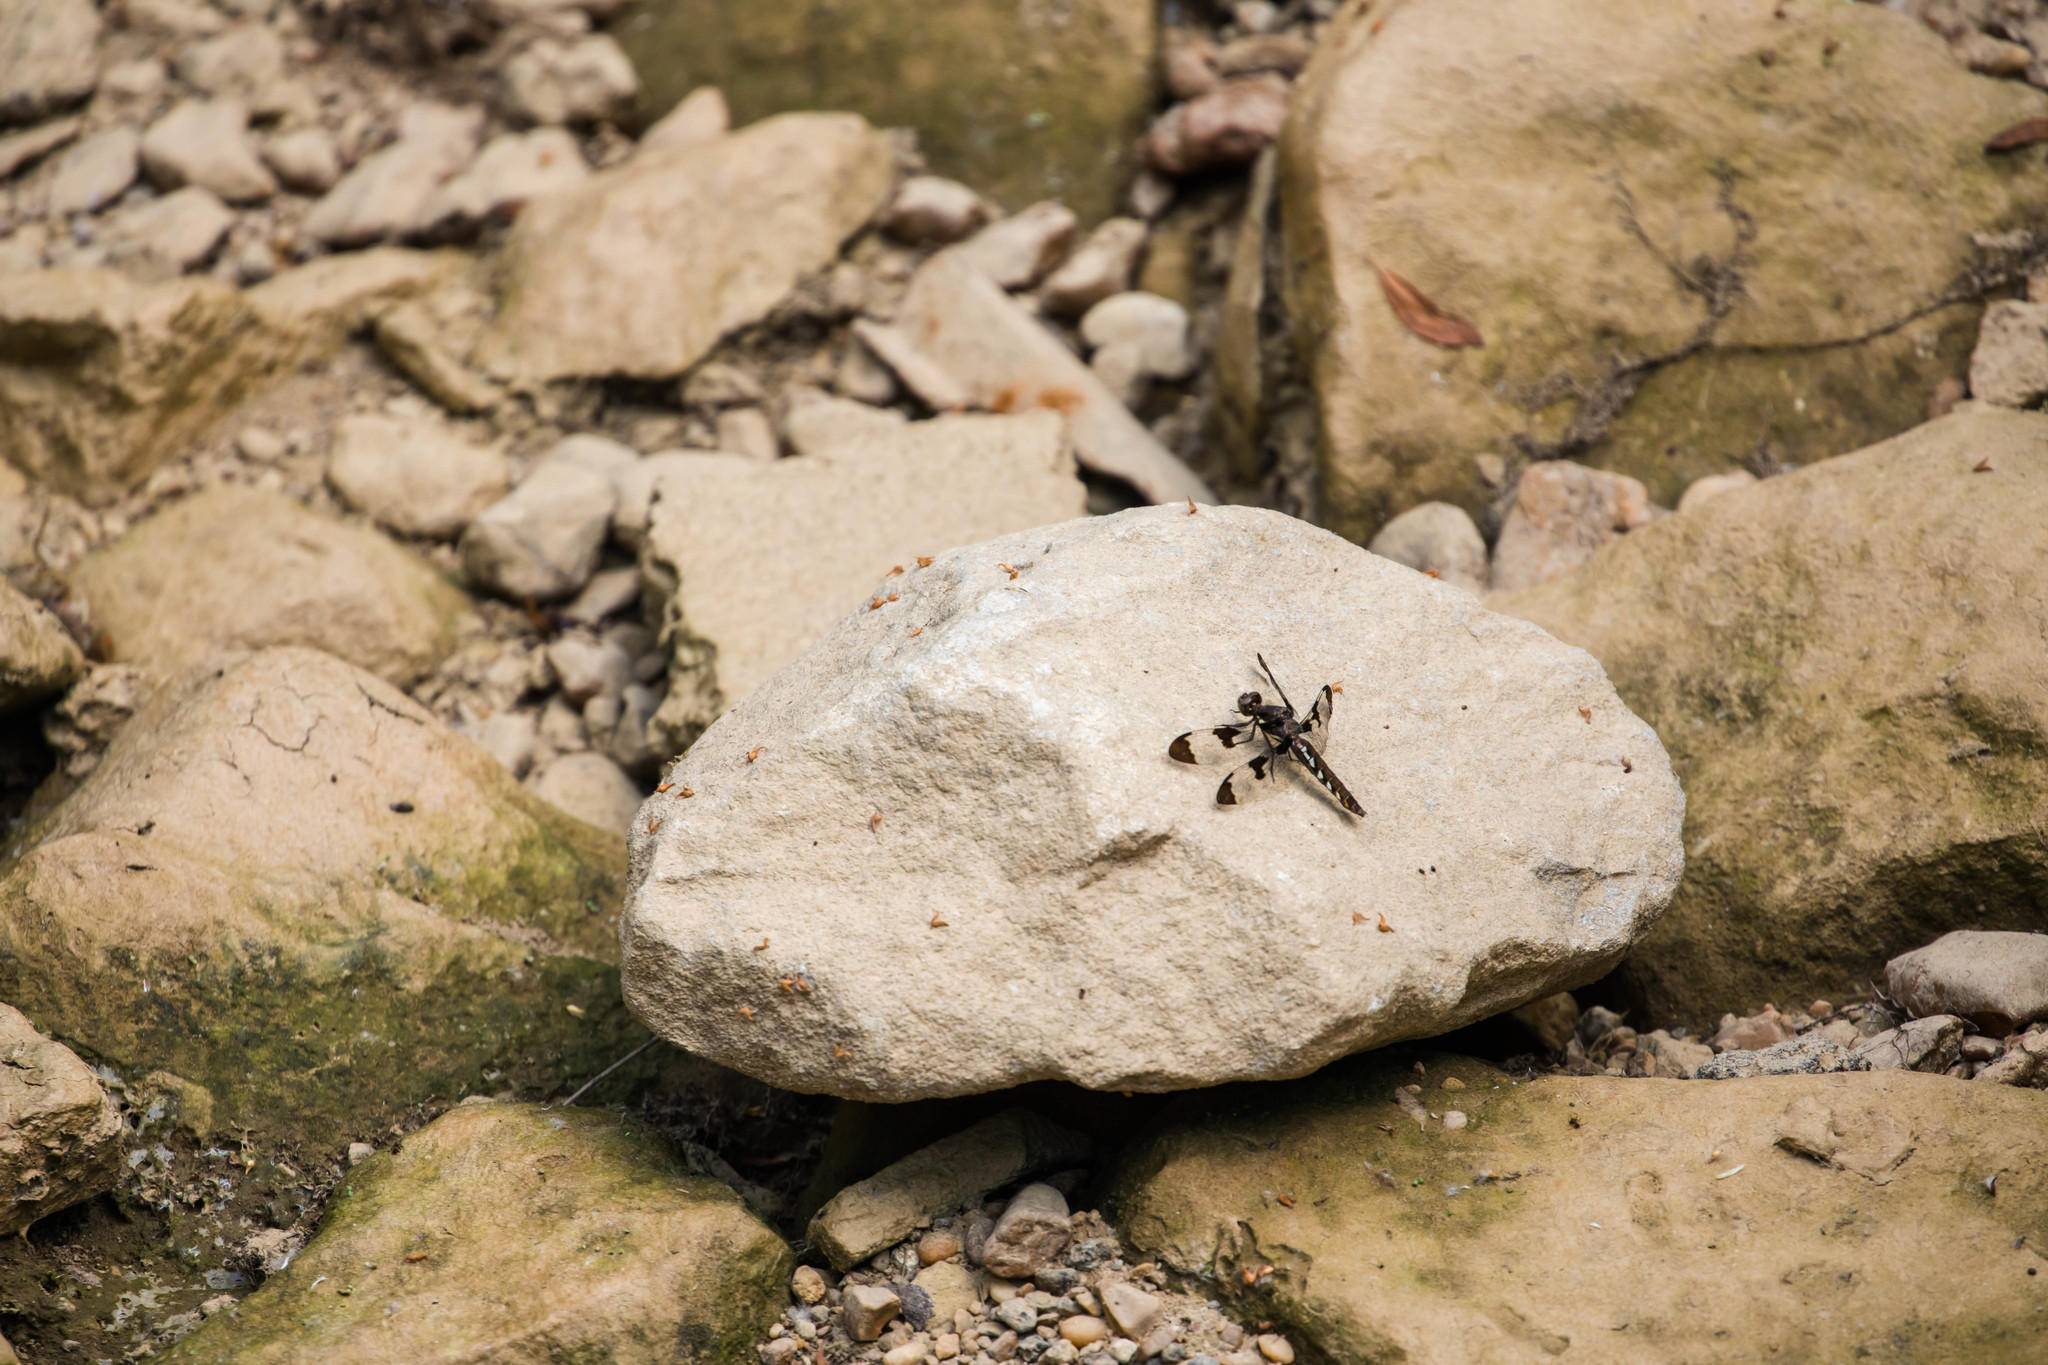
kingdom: Animalia
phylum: Arthropoda
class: Insecta
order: Odonata
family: Libellulidae
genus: Plathemis
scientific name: Plathemis lydia
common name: Common whitetail
